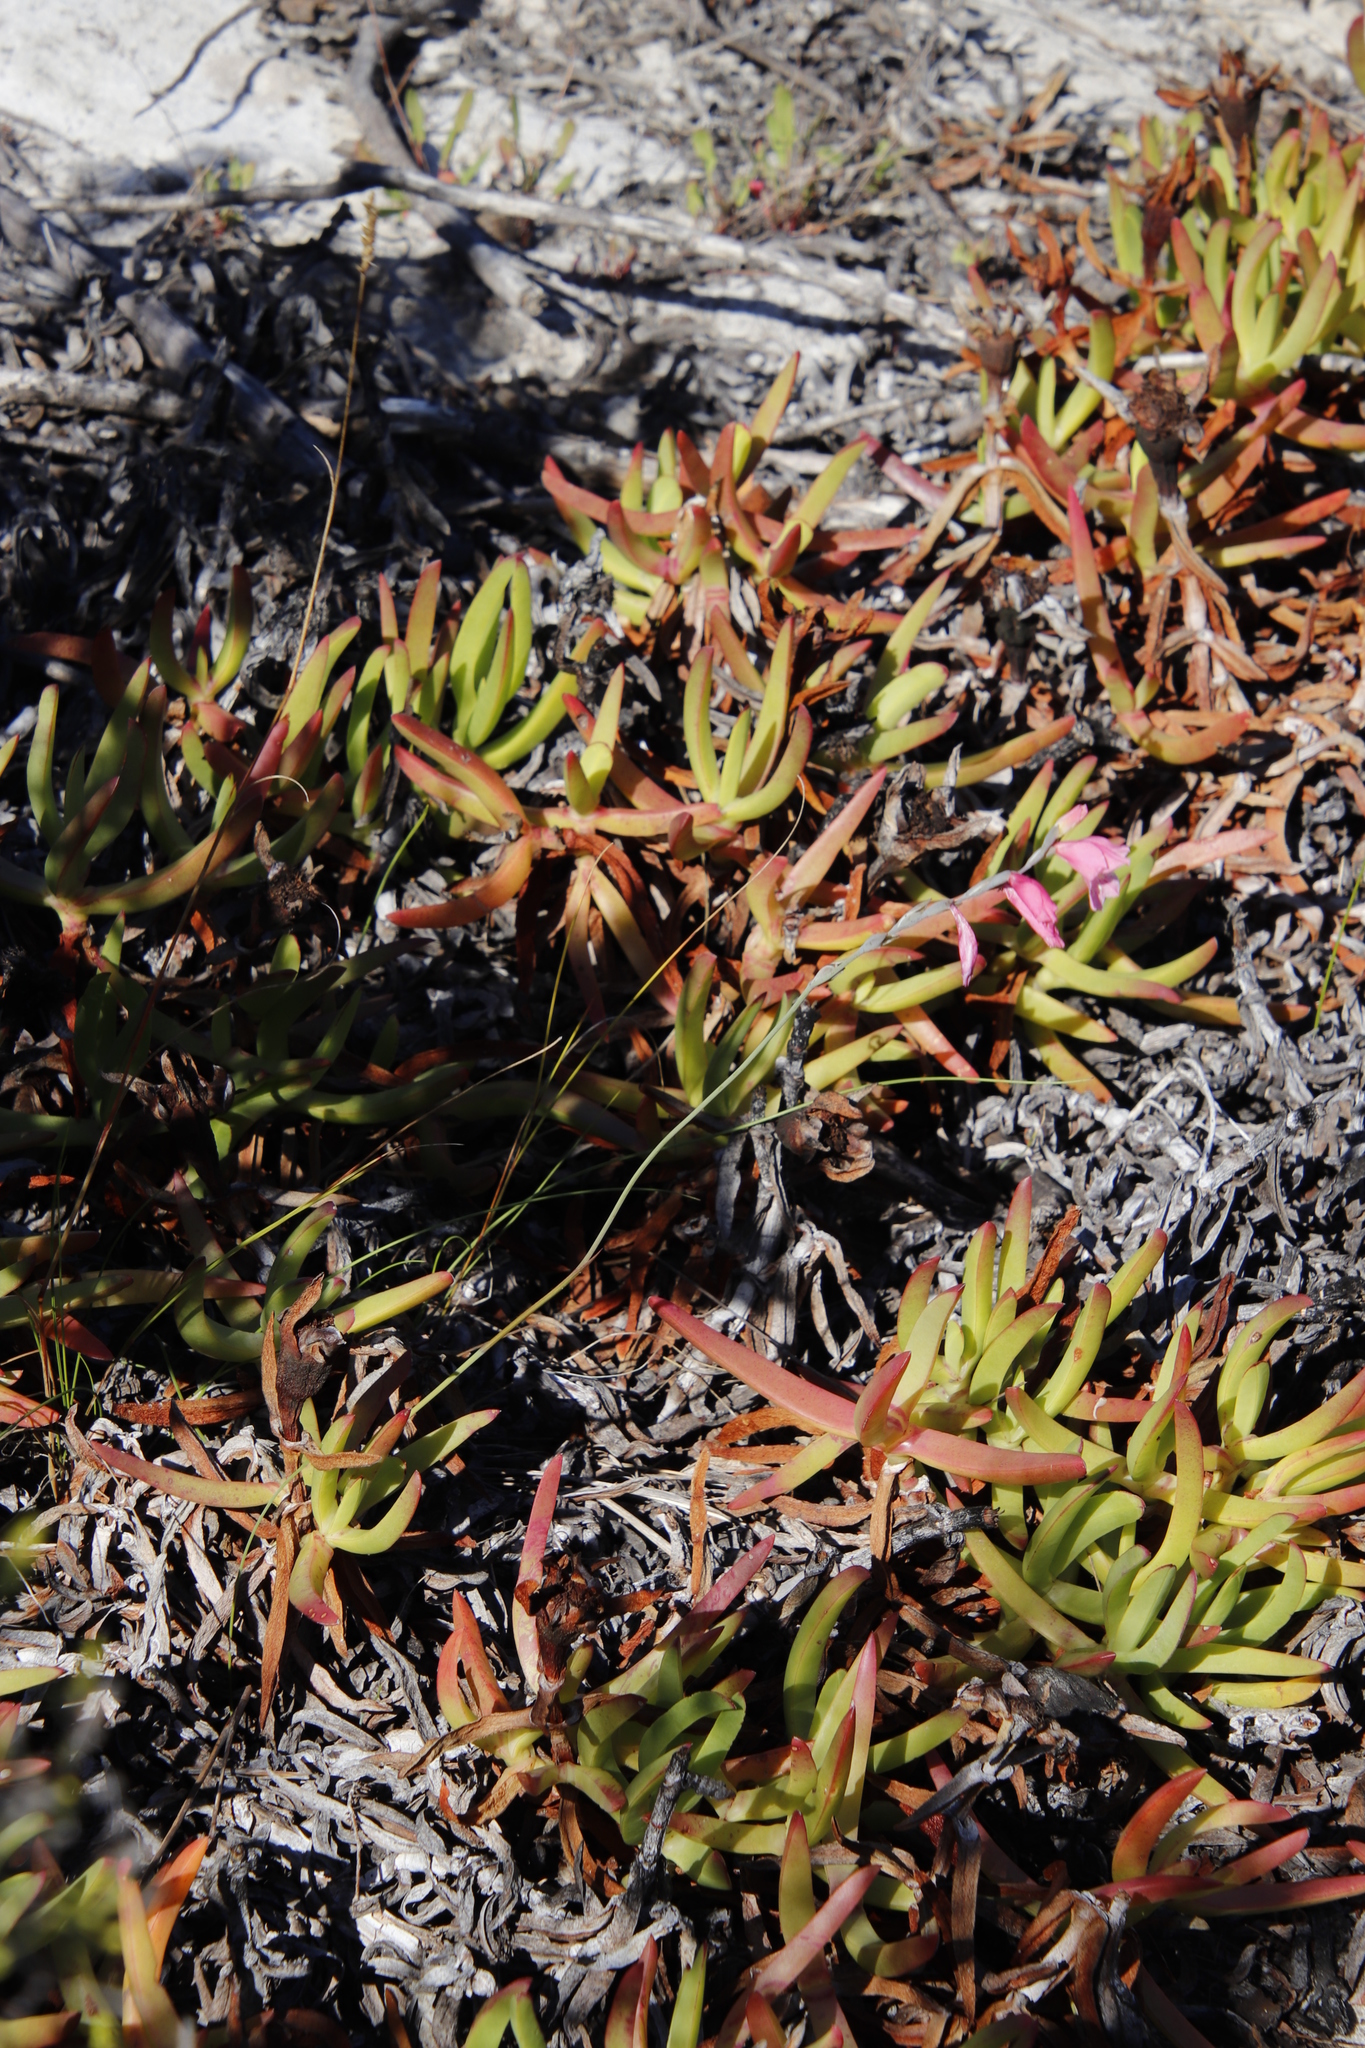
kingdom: Plantae
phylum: Tracheophyta
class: Magnoliopsida
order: Caryophyllales
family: Aizoaceae
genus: Carpobrotus
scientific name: Carpobrotus edulis
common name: Hottentot-fig
